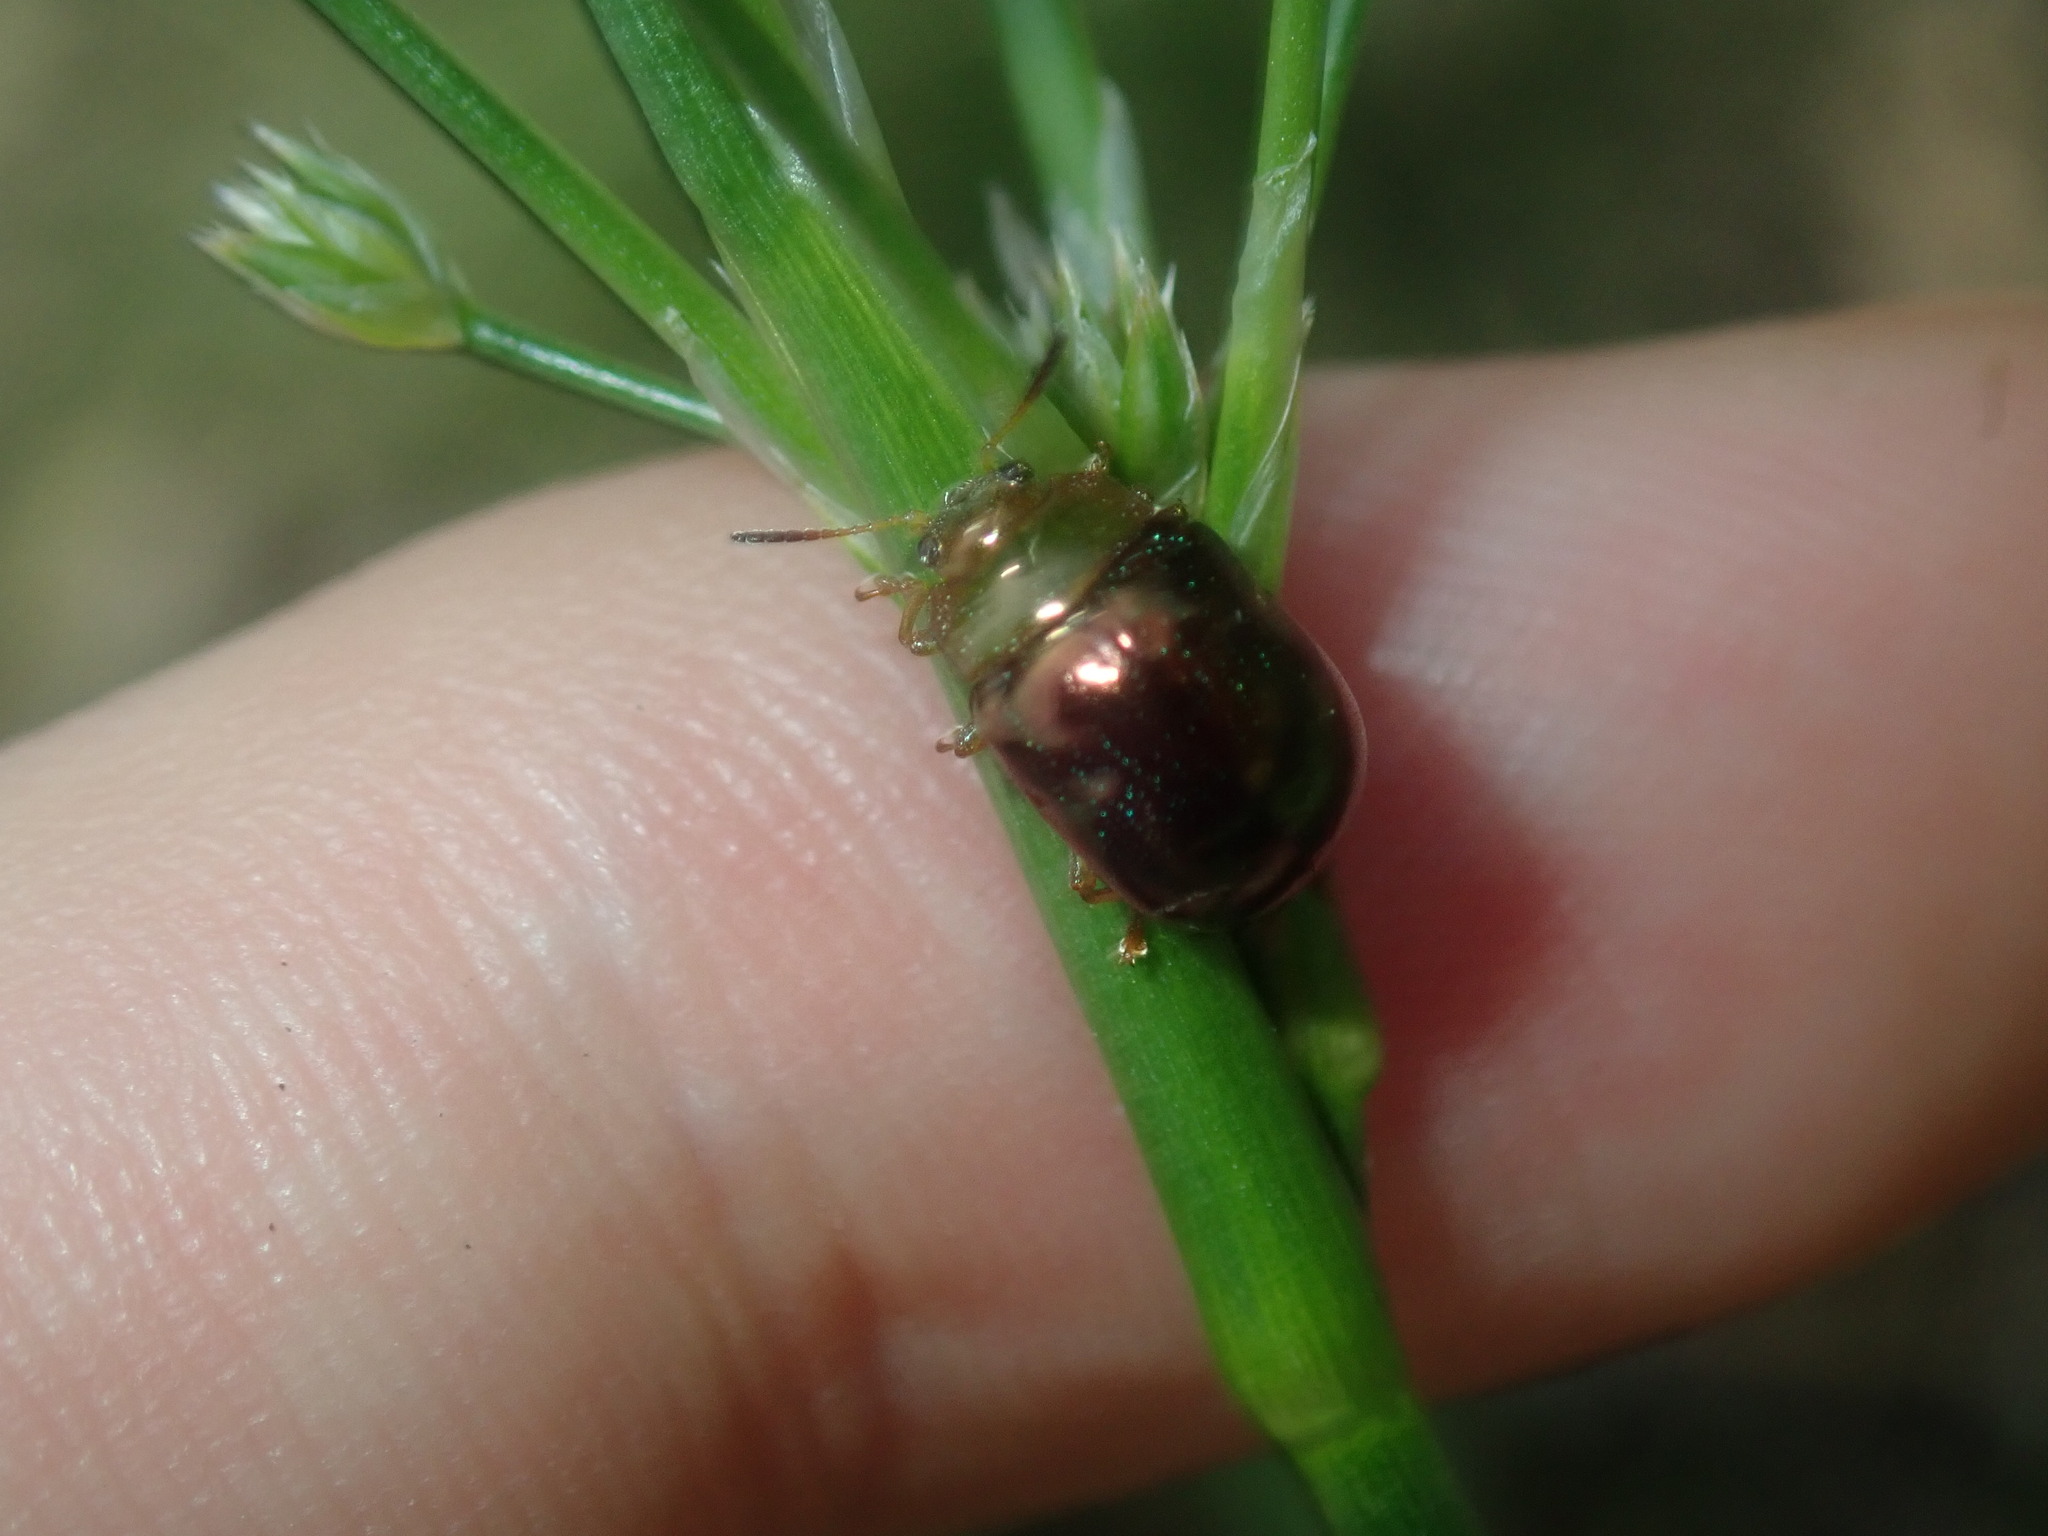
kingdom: Animalia
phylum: Arthropoda
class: Insecta
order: Coleoptera
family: Chrysomelidae
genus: Calomela
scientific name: Calomela
